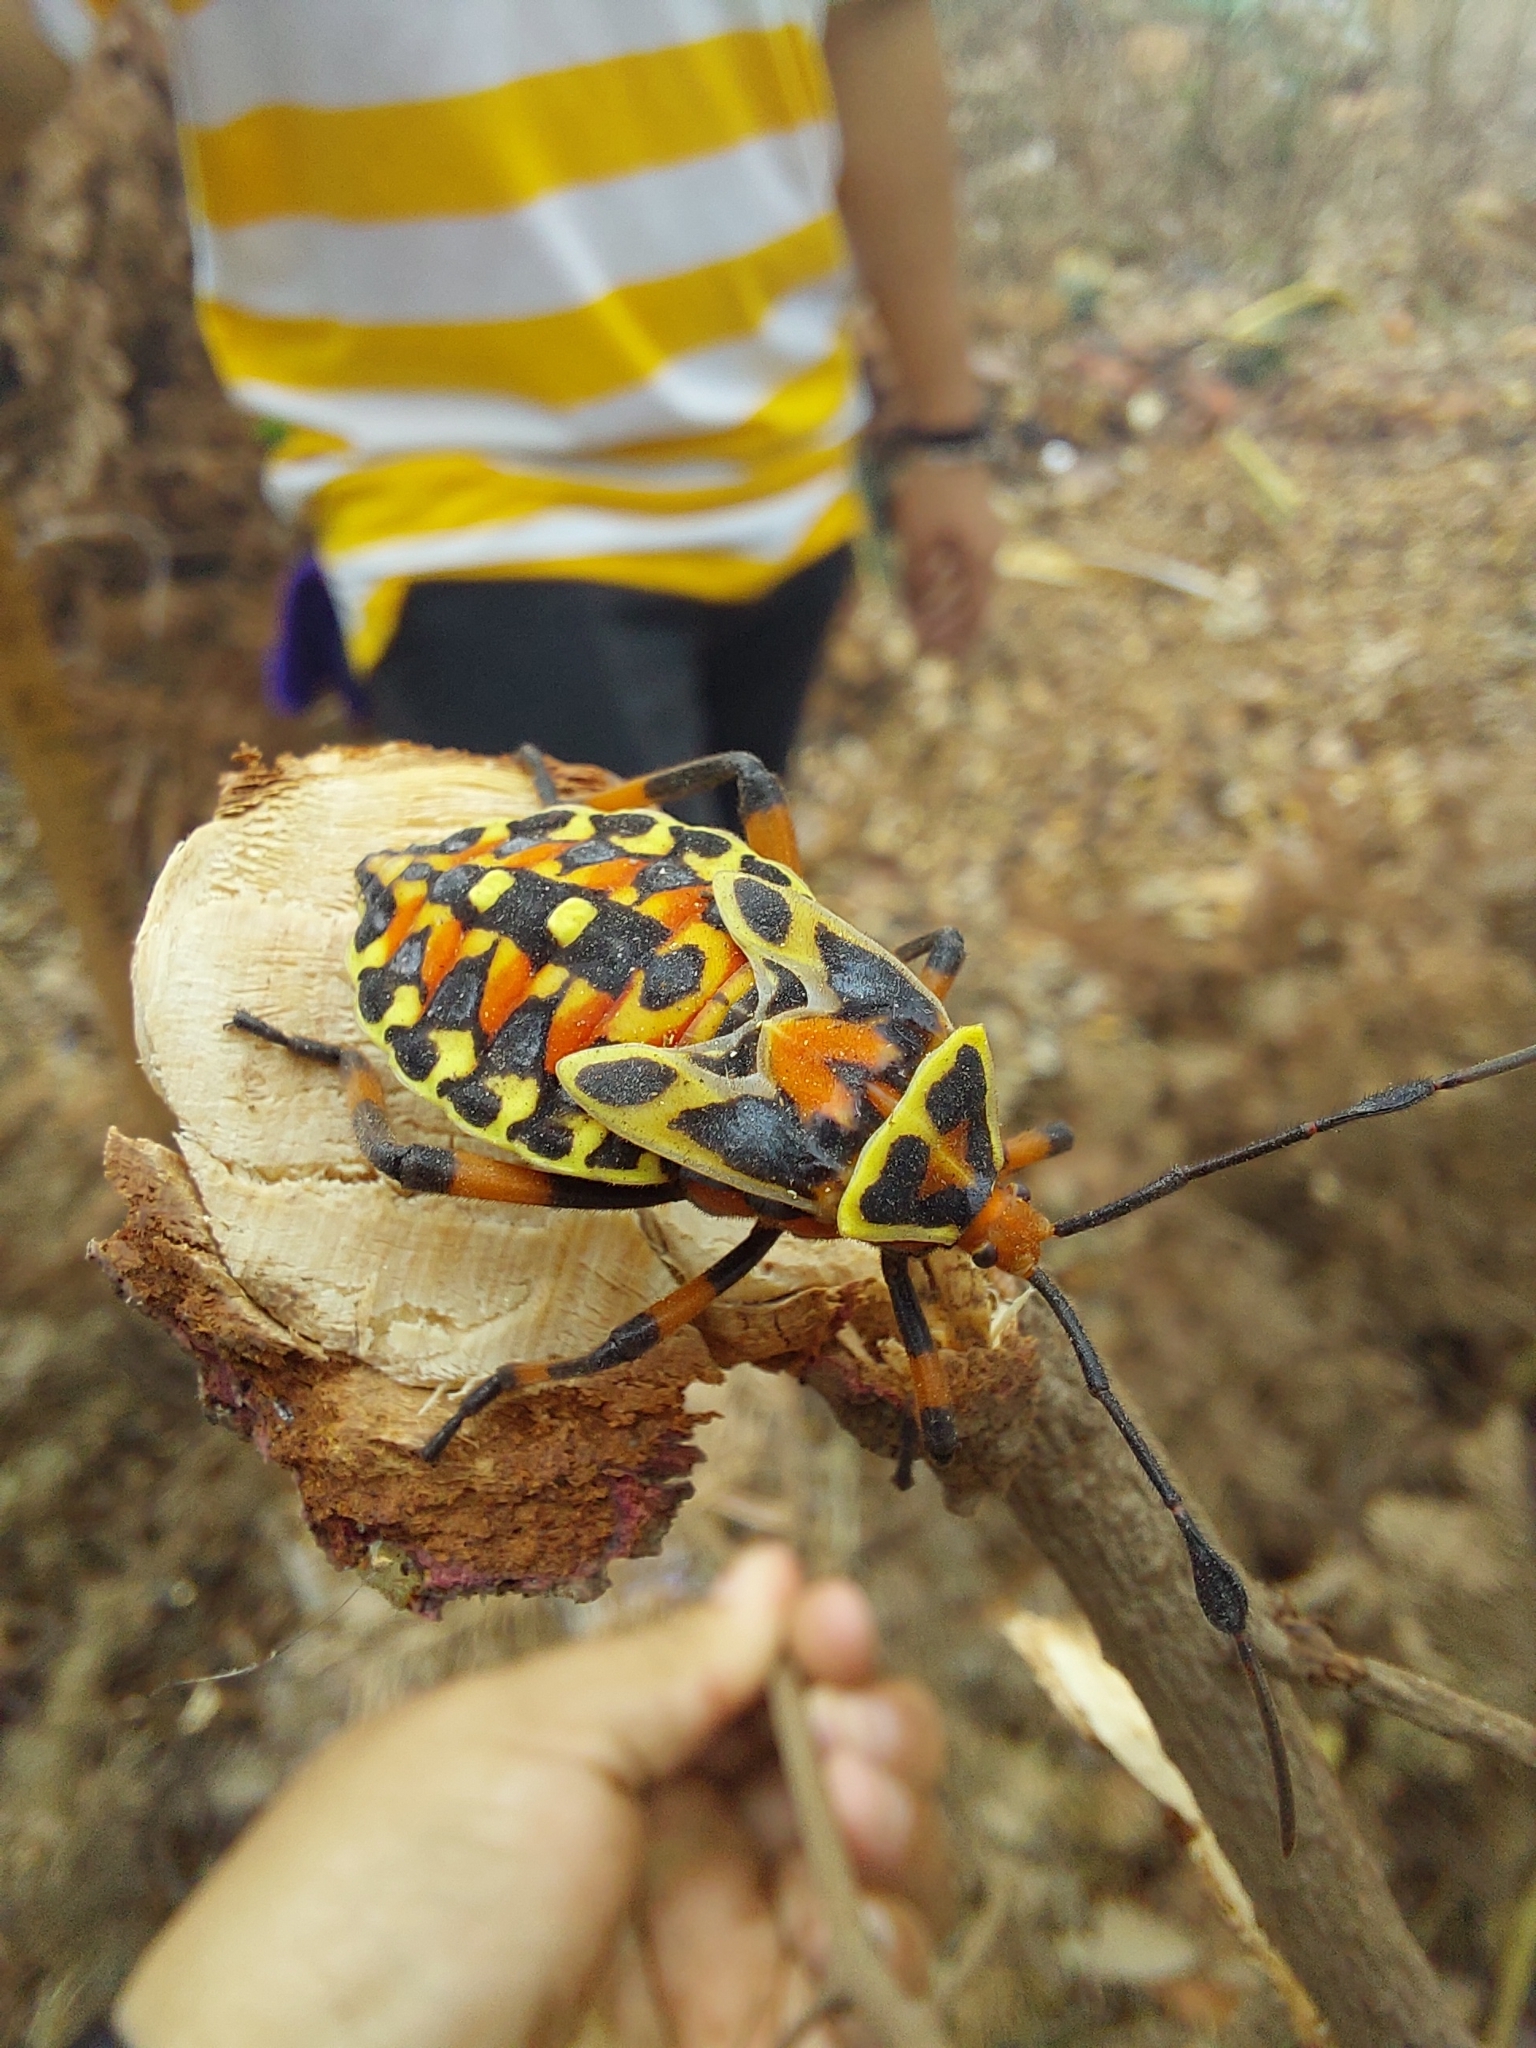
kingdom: Animalia
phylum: Arthropoda
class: Insecta
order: Hemiptera
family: Coreidae
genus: Pachylis
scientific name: Pachylis nervosus
